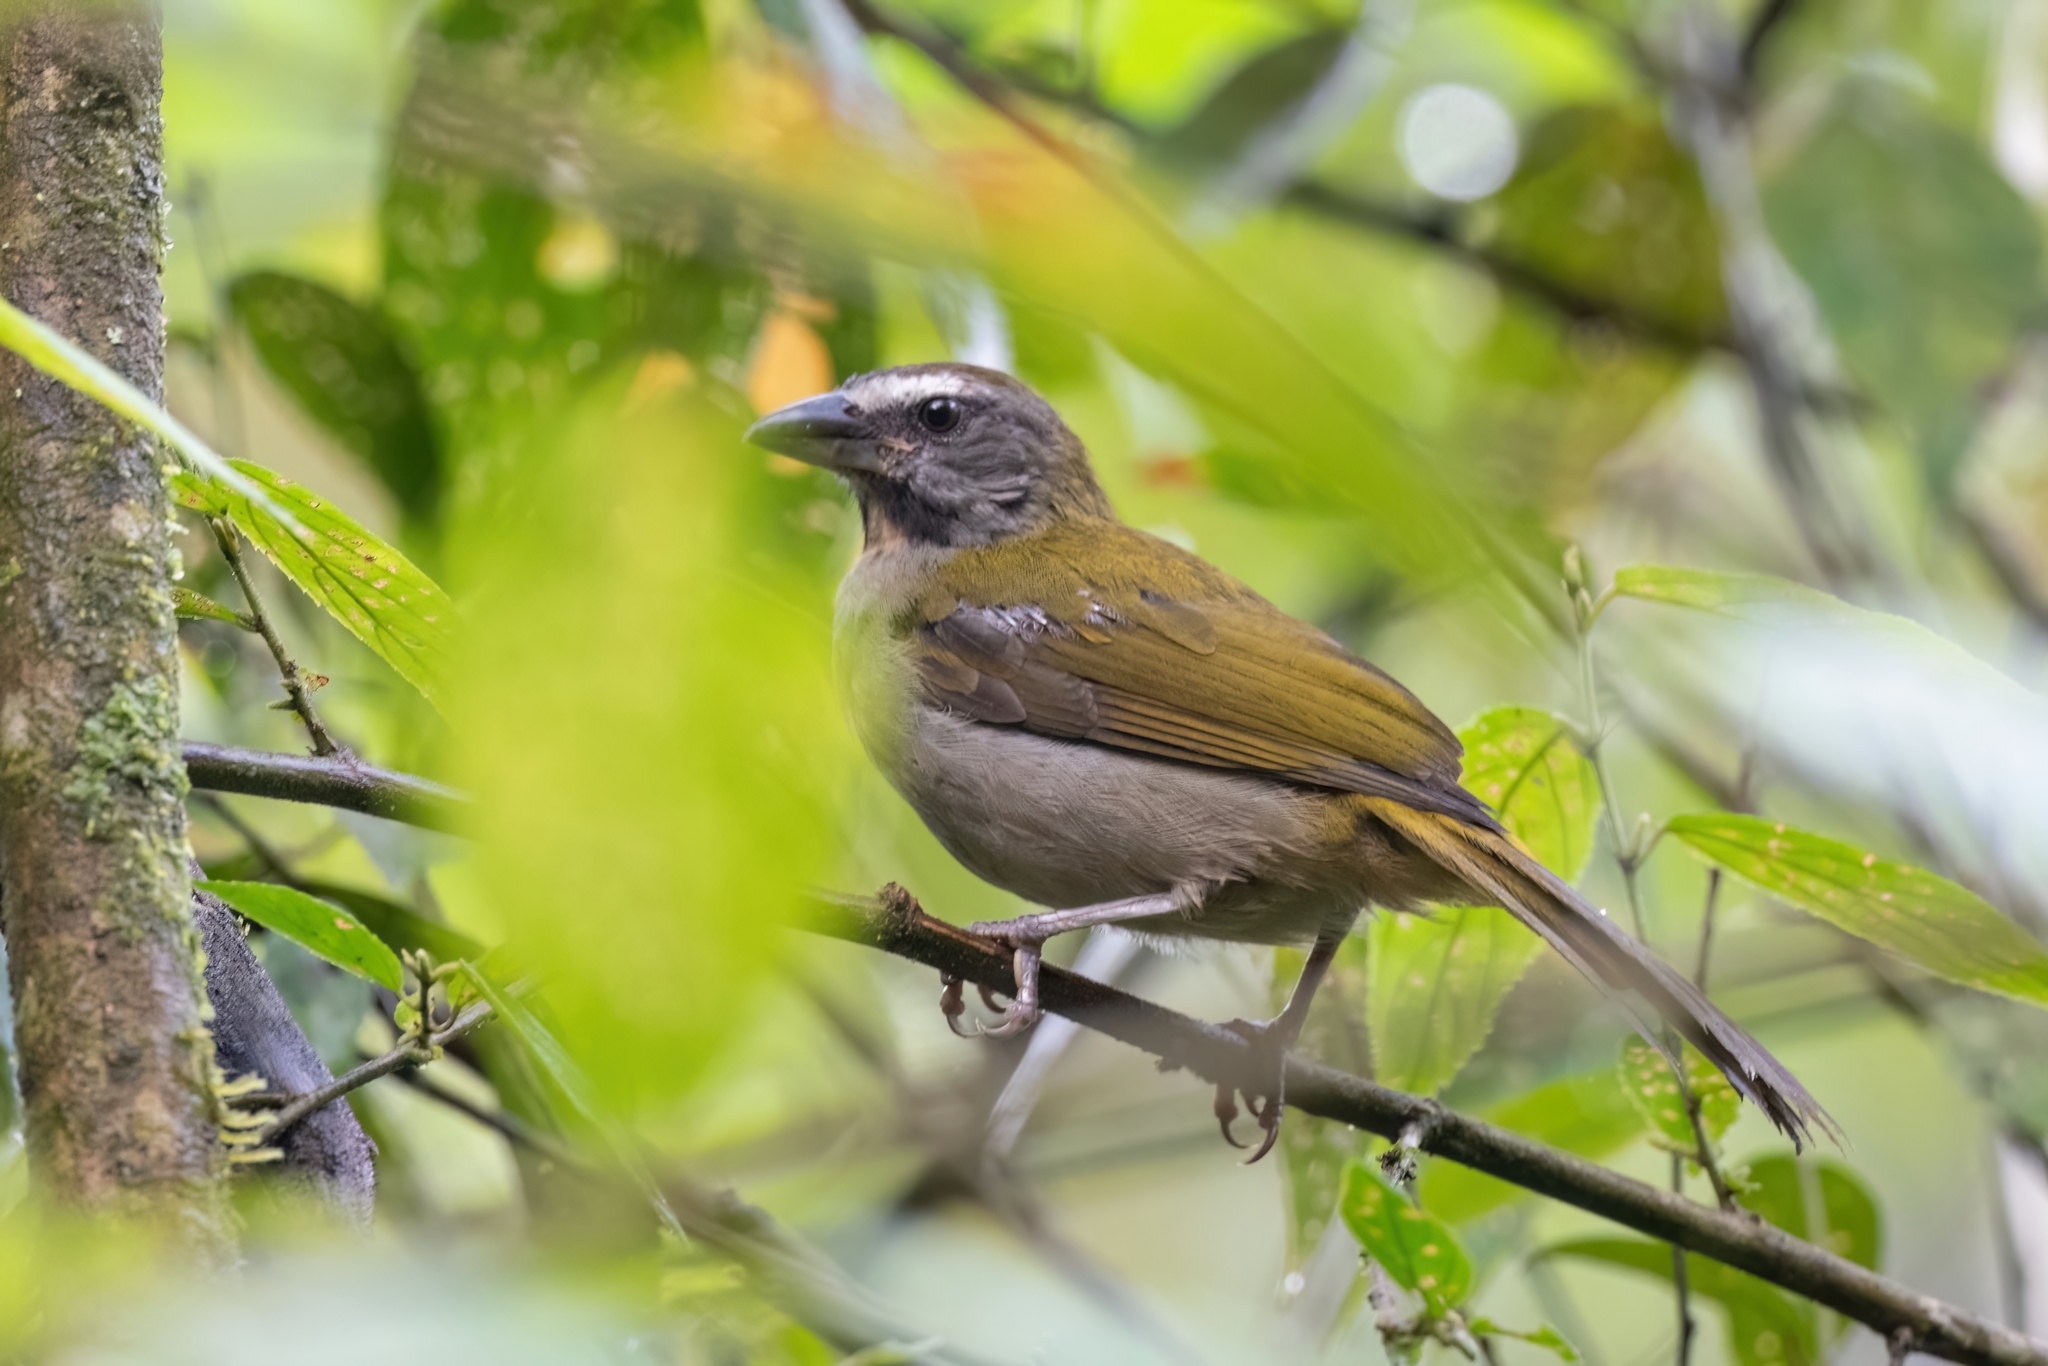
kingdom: Animalia
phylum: Chordata
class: Aves
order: Passeriformes
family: Thraupidae
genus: Saltator
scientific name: Saltator maximus
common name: Buff-throated saltator
